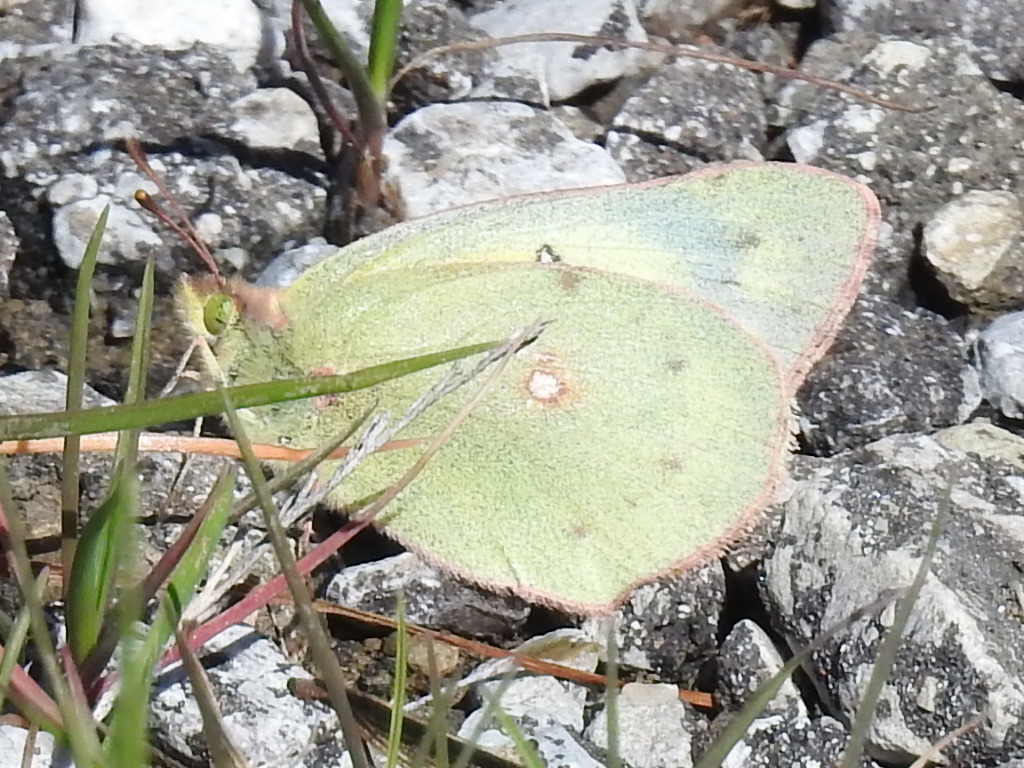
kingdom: Animalia
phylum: Arthropoda
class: Insecta
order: Lepidoptera
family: Pieridae
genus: Colias
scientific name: Colias eurytheme
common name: Alfalfa butterfly
